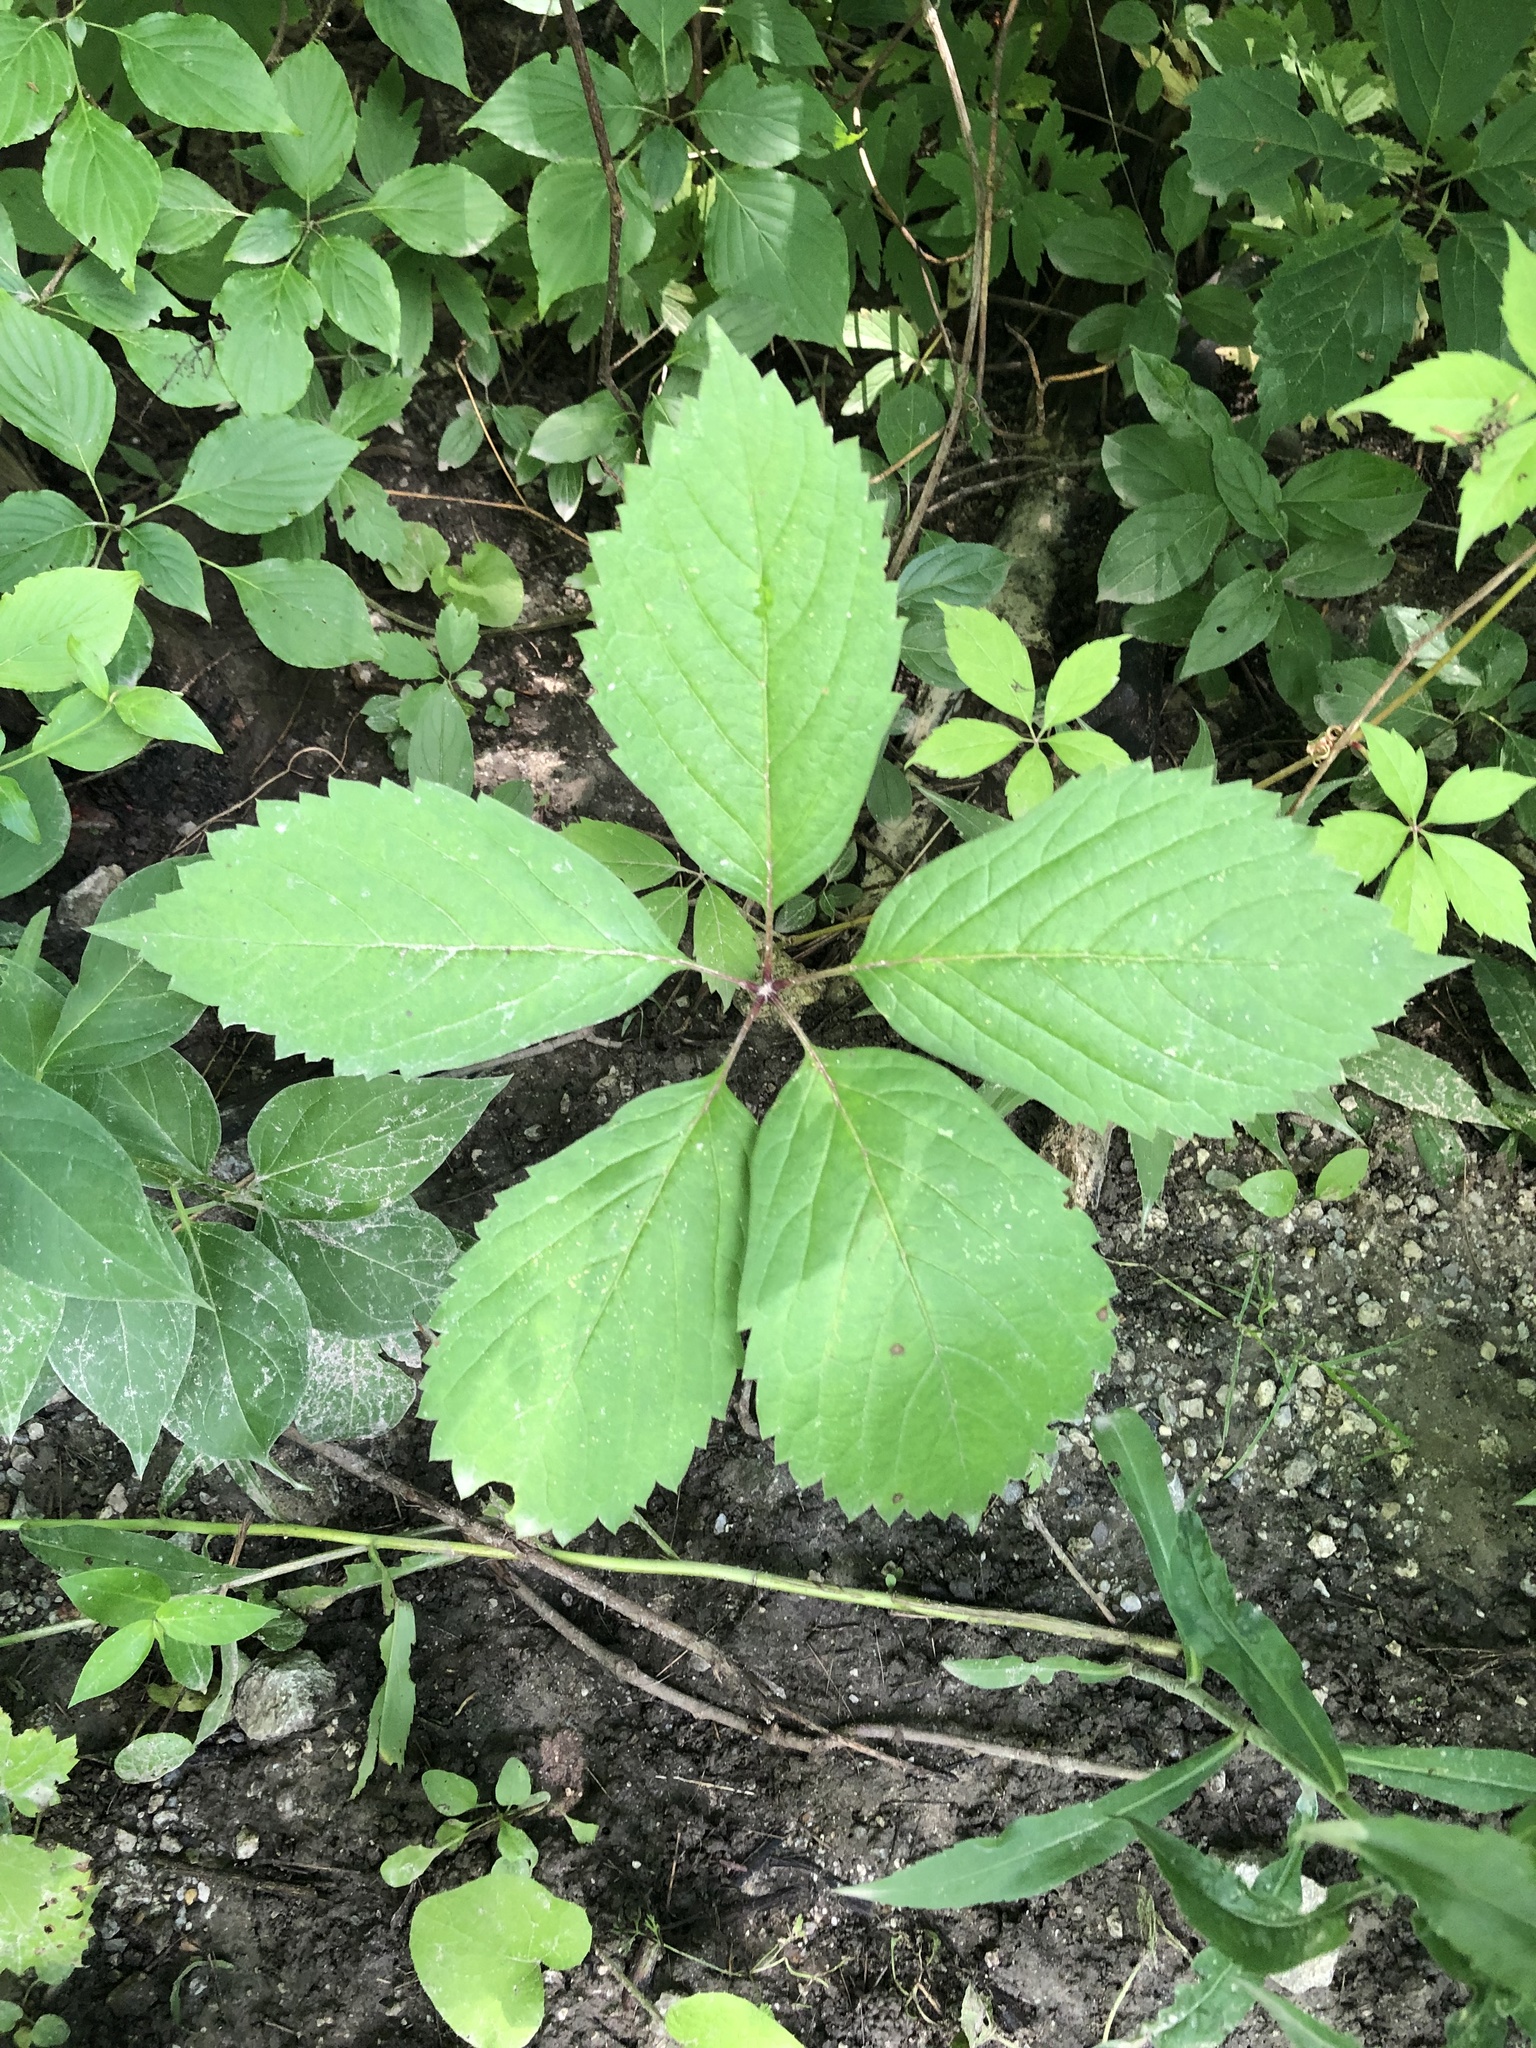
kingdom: Plantae
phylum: Tracheophyta
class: Magnoliopsida
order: Vitales
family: Vitaceae
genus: Parthenocissus
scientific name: Parthenocissus inserta
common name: False virginia-creeper
